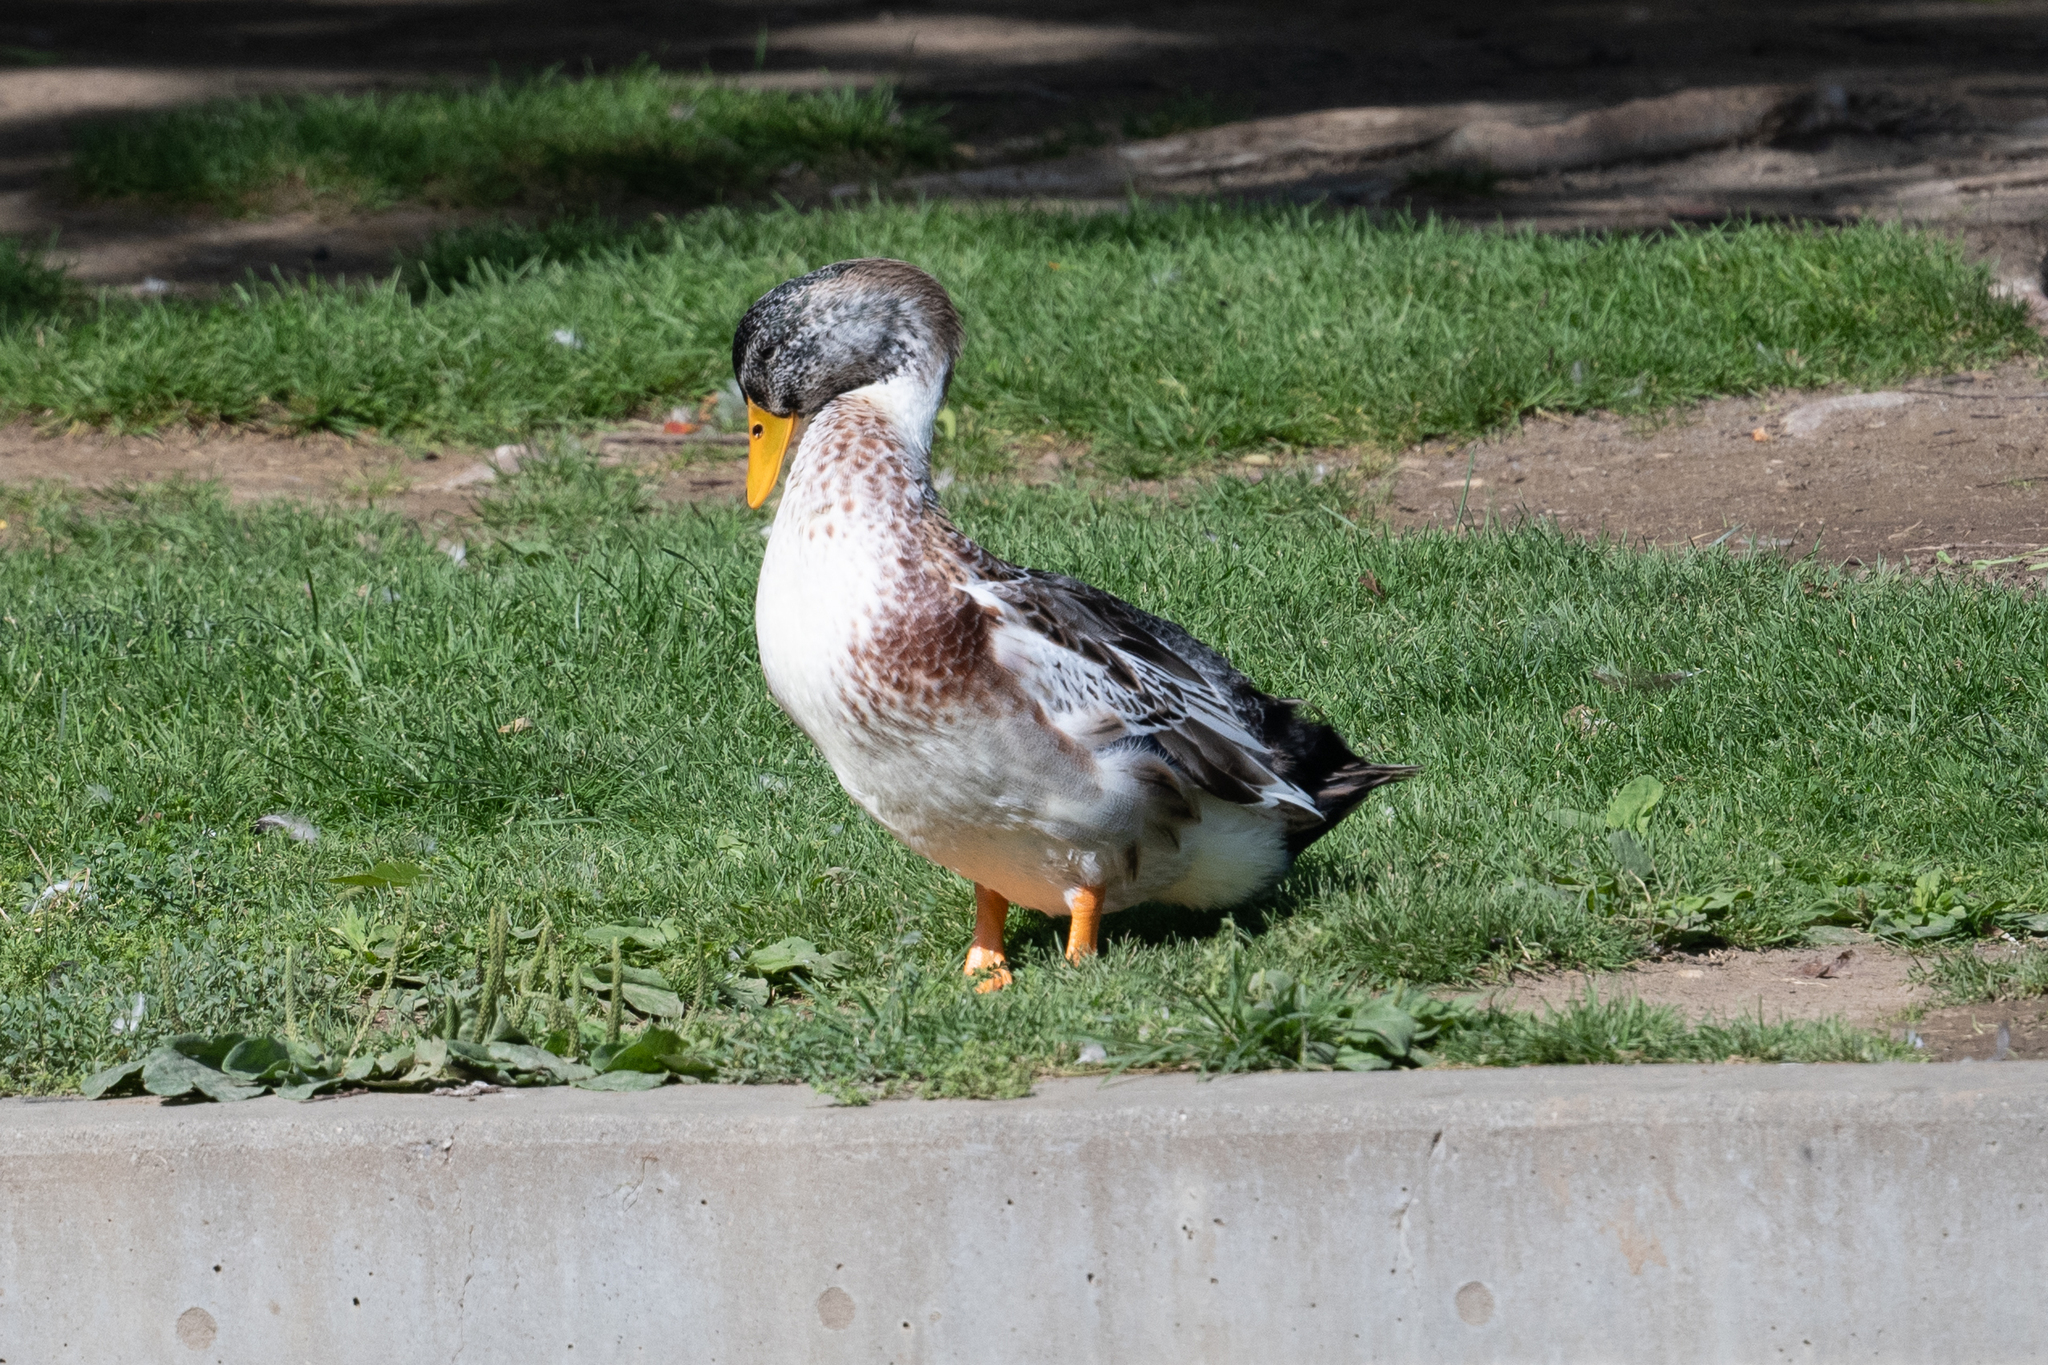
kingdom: Animalia
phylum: Chordata
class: Aves
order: Anseriformes
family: Anatidae
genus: Anas
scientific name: Anas platyrhynchos
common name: Mallard
